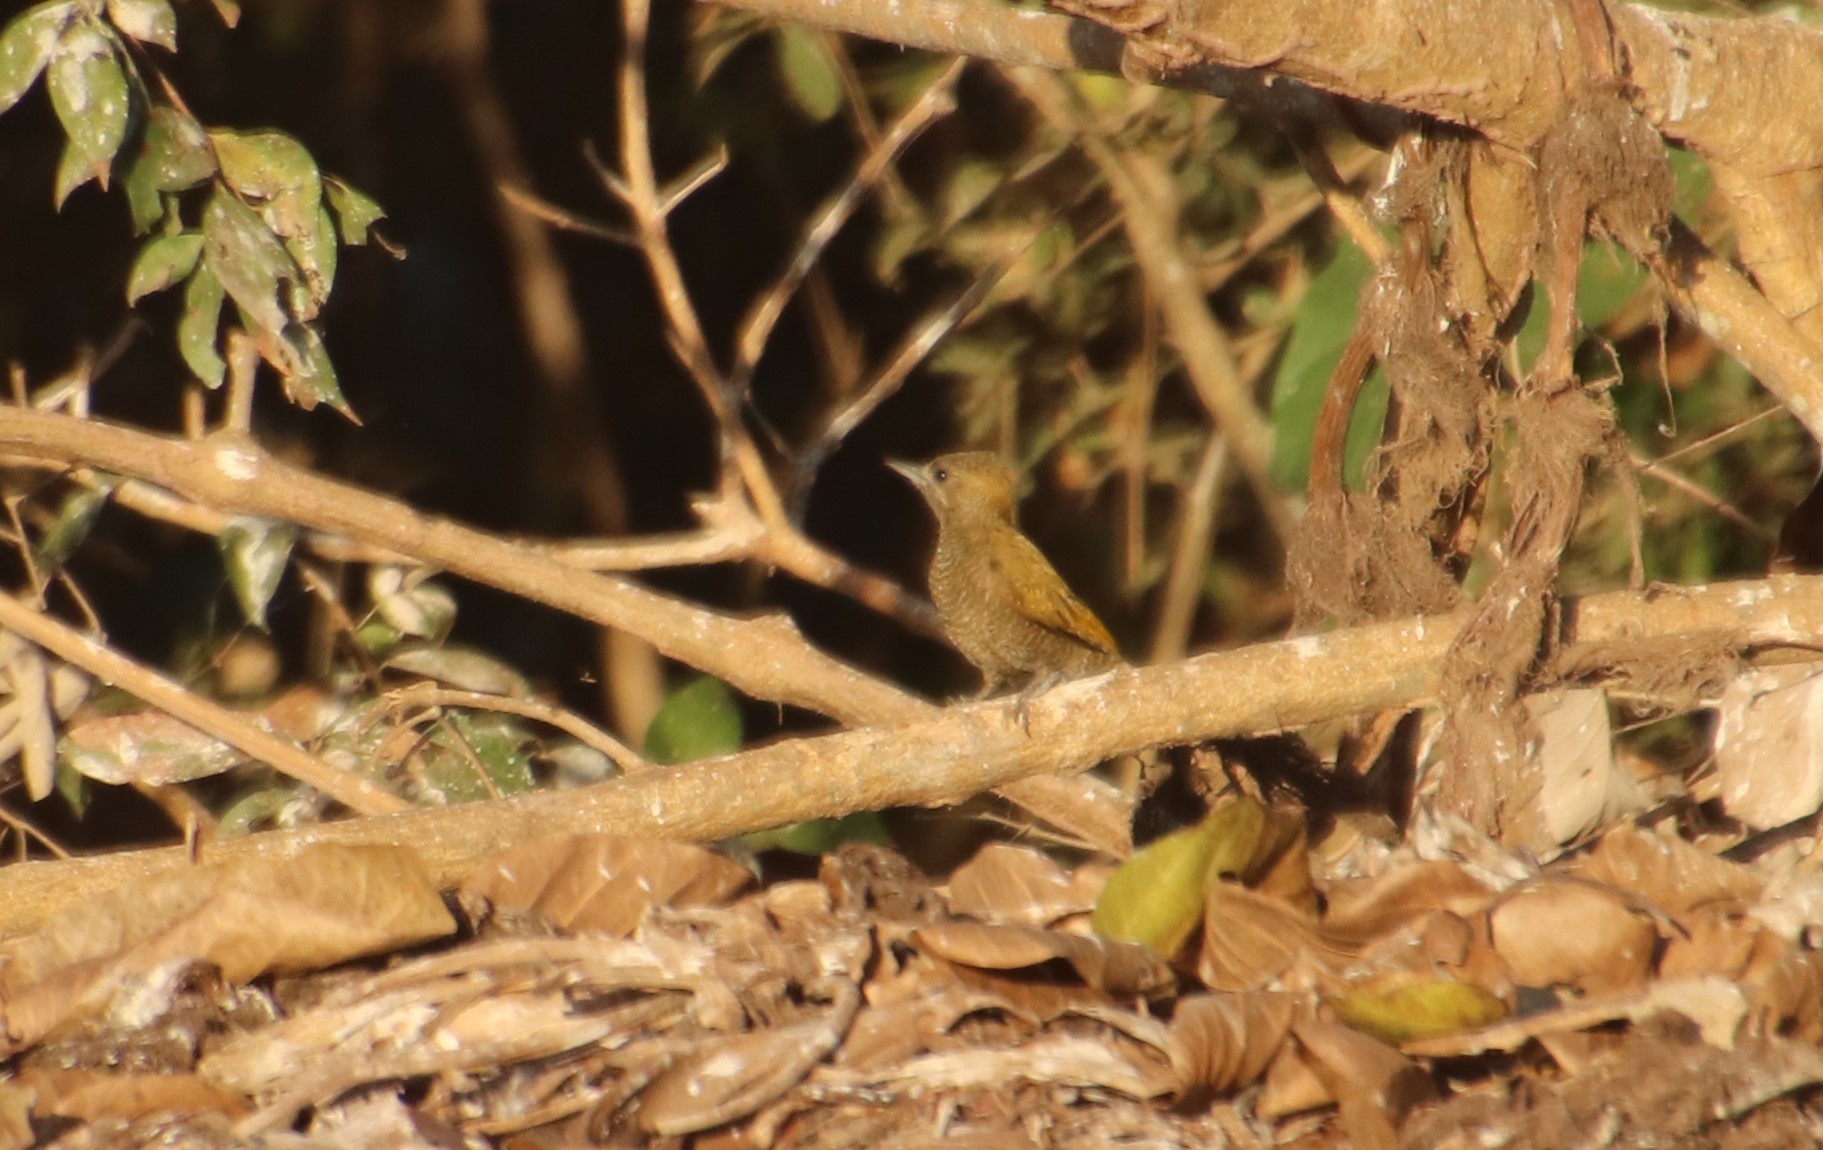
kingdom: Animalia
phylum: Chordata
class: Aves
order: Piciformes
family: Picidae
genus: Veniliornis
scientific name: Veniliornis passerinus
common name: Little woodpecker
